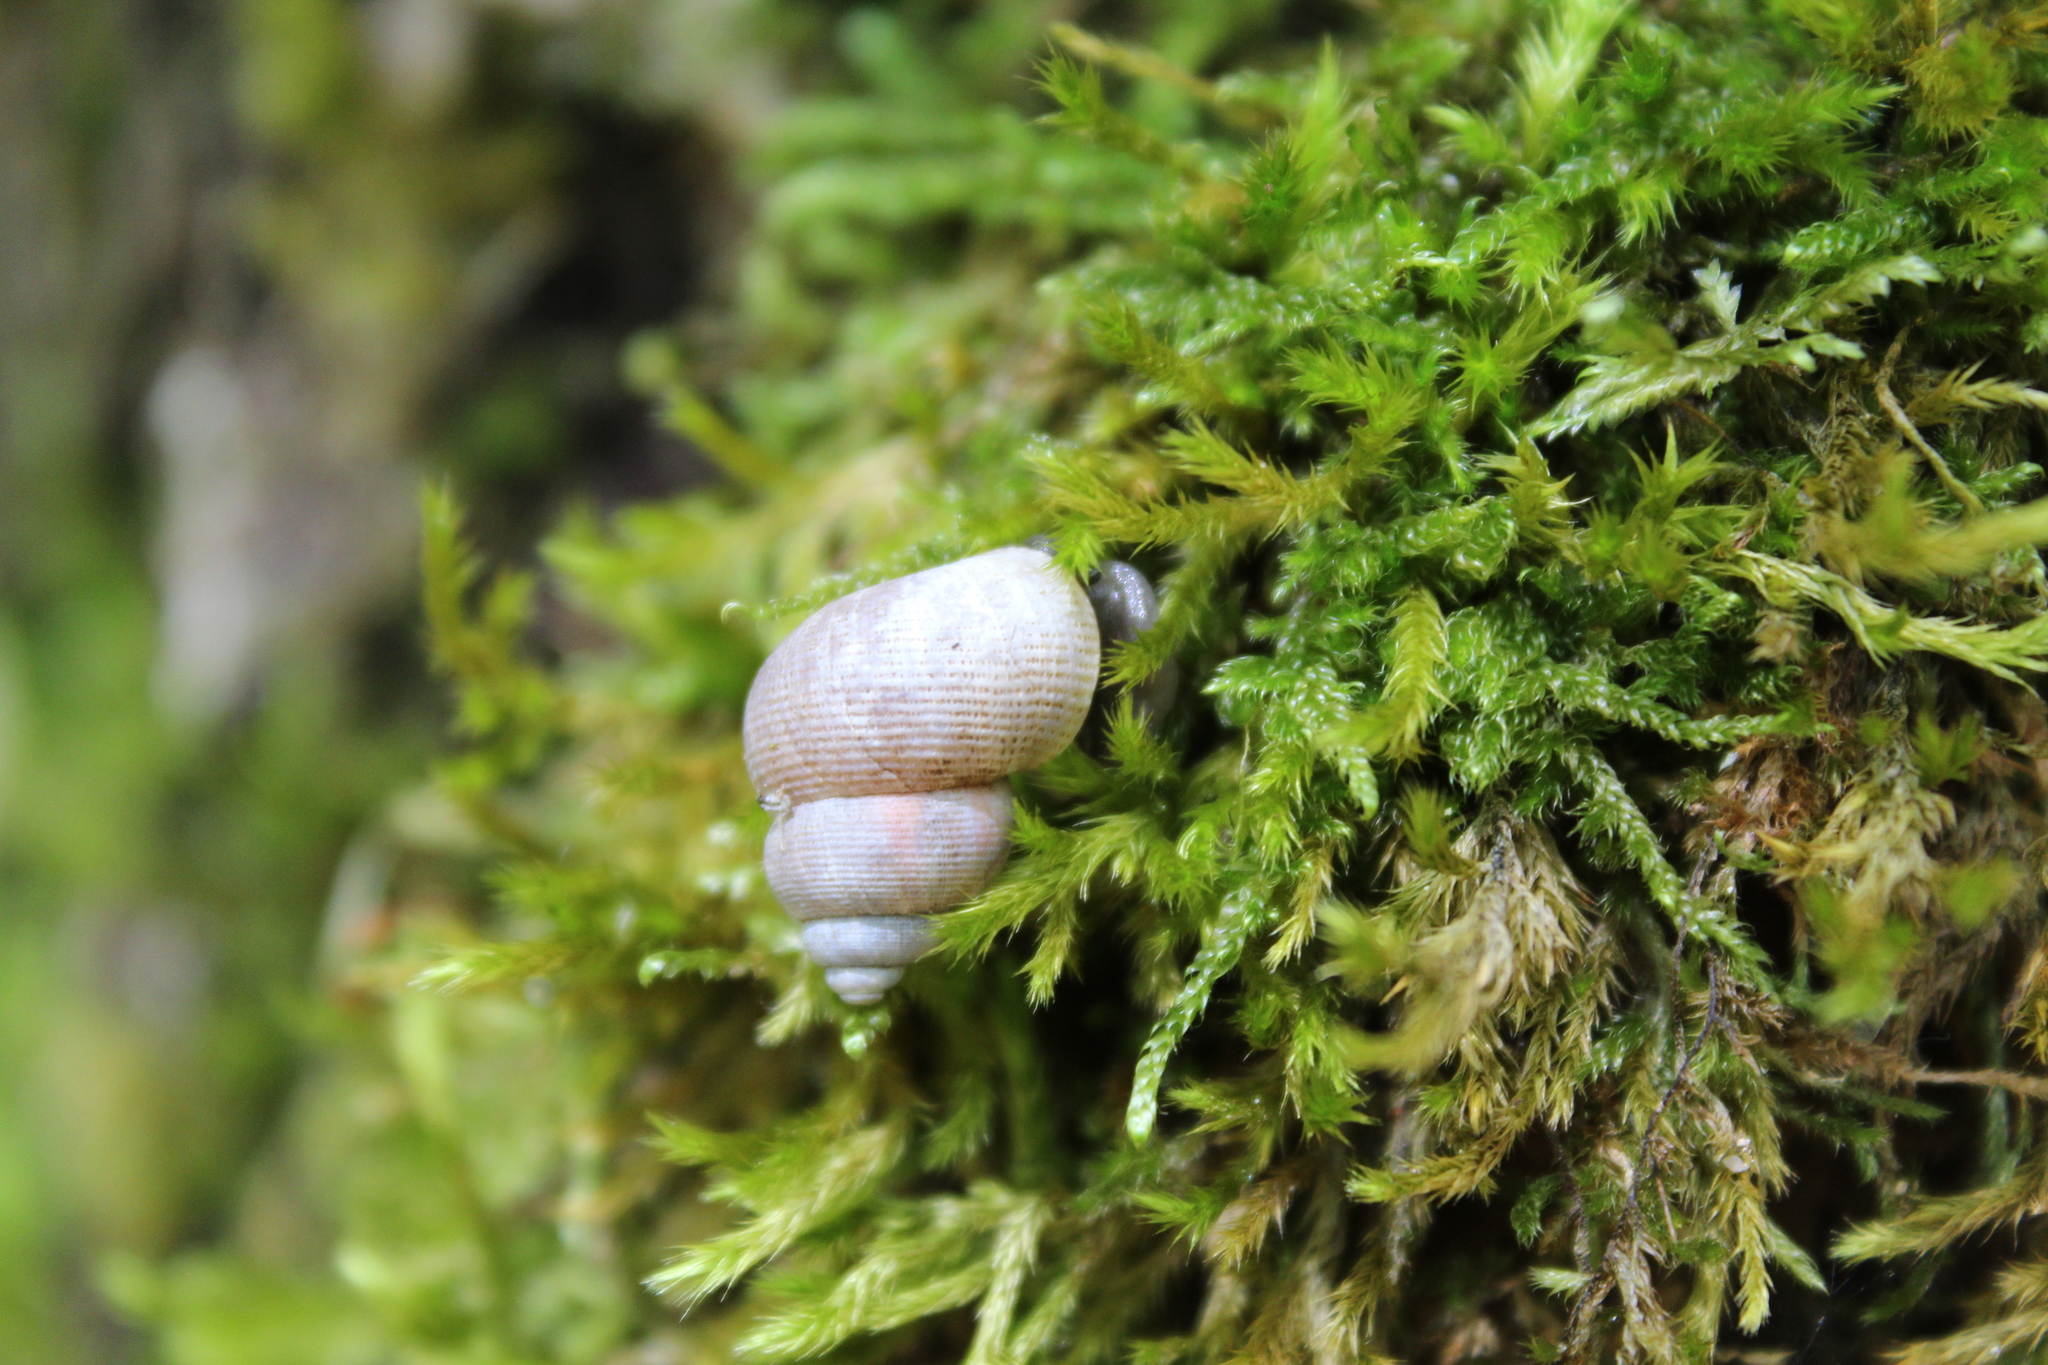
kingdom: Animalia
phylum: Mollusca
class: Gastropoda
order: Littorinimorpha
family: Pomatiidae
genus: Pomatias
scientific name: Pomatias elegans
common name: Red-mouthed snail
